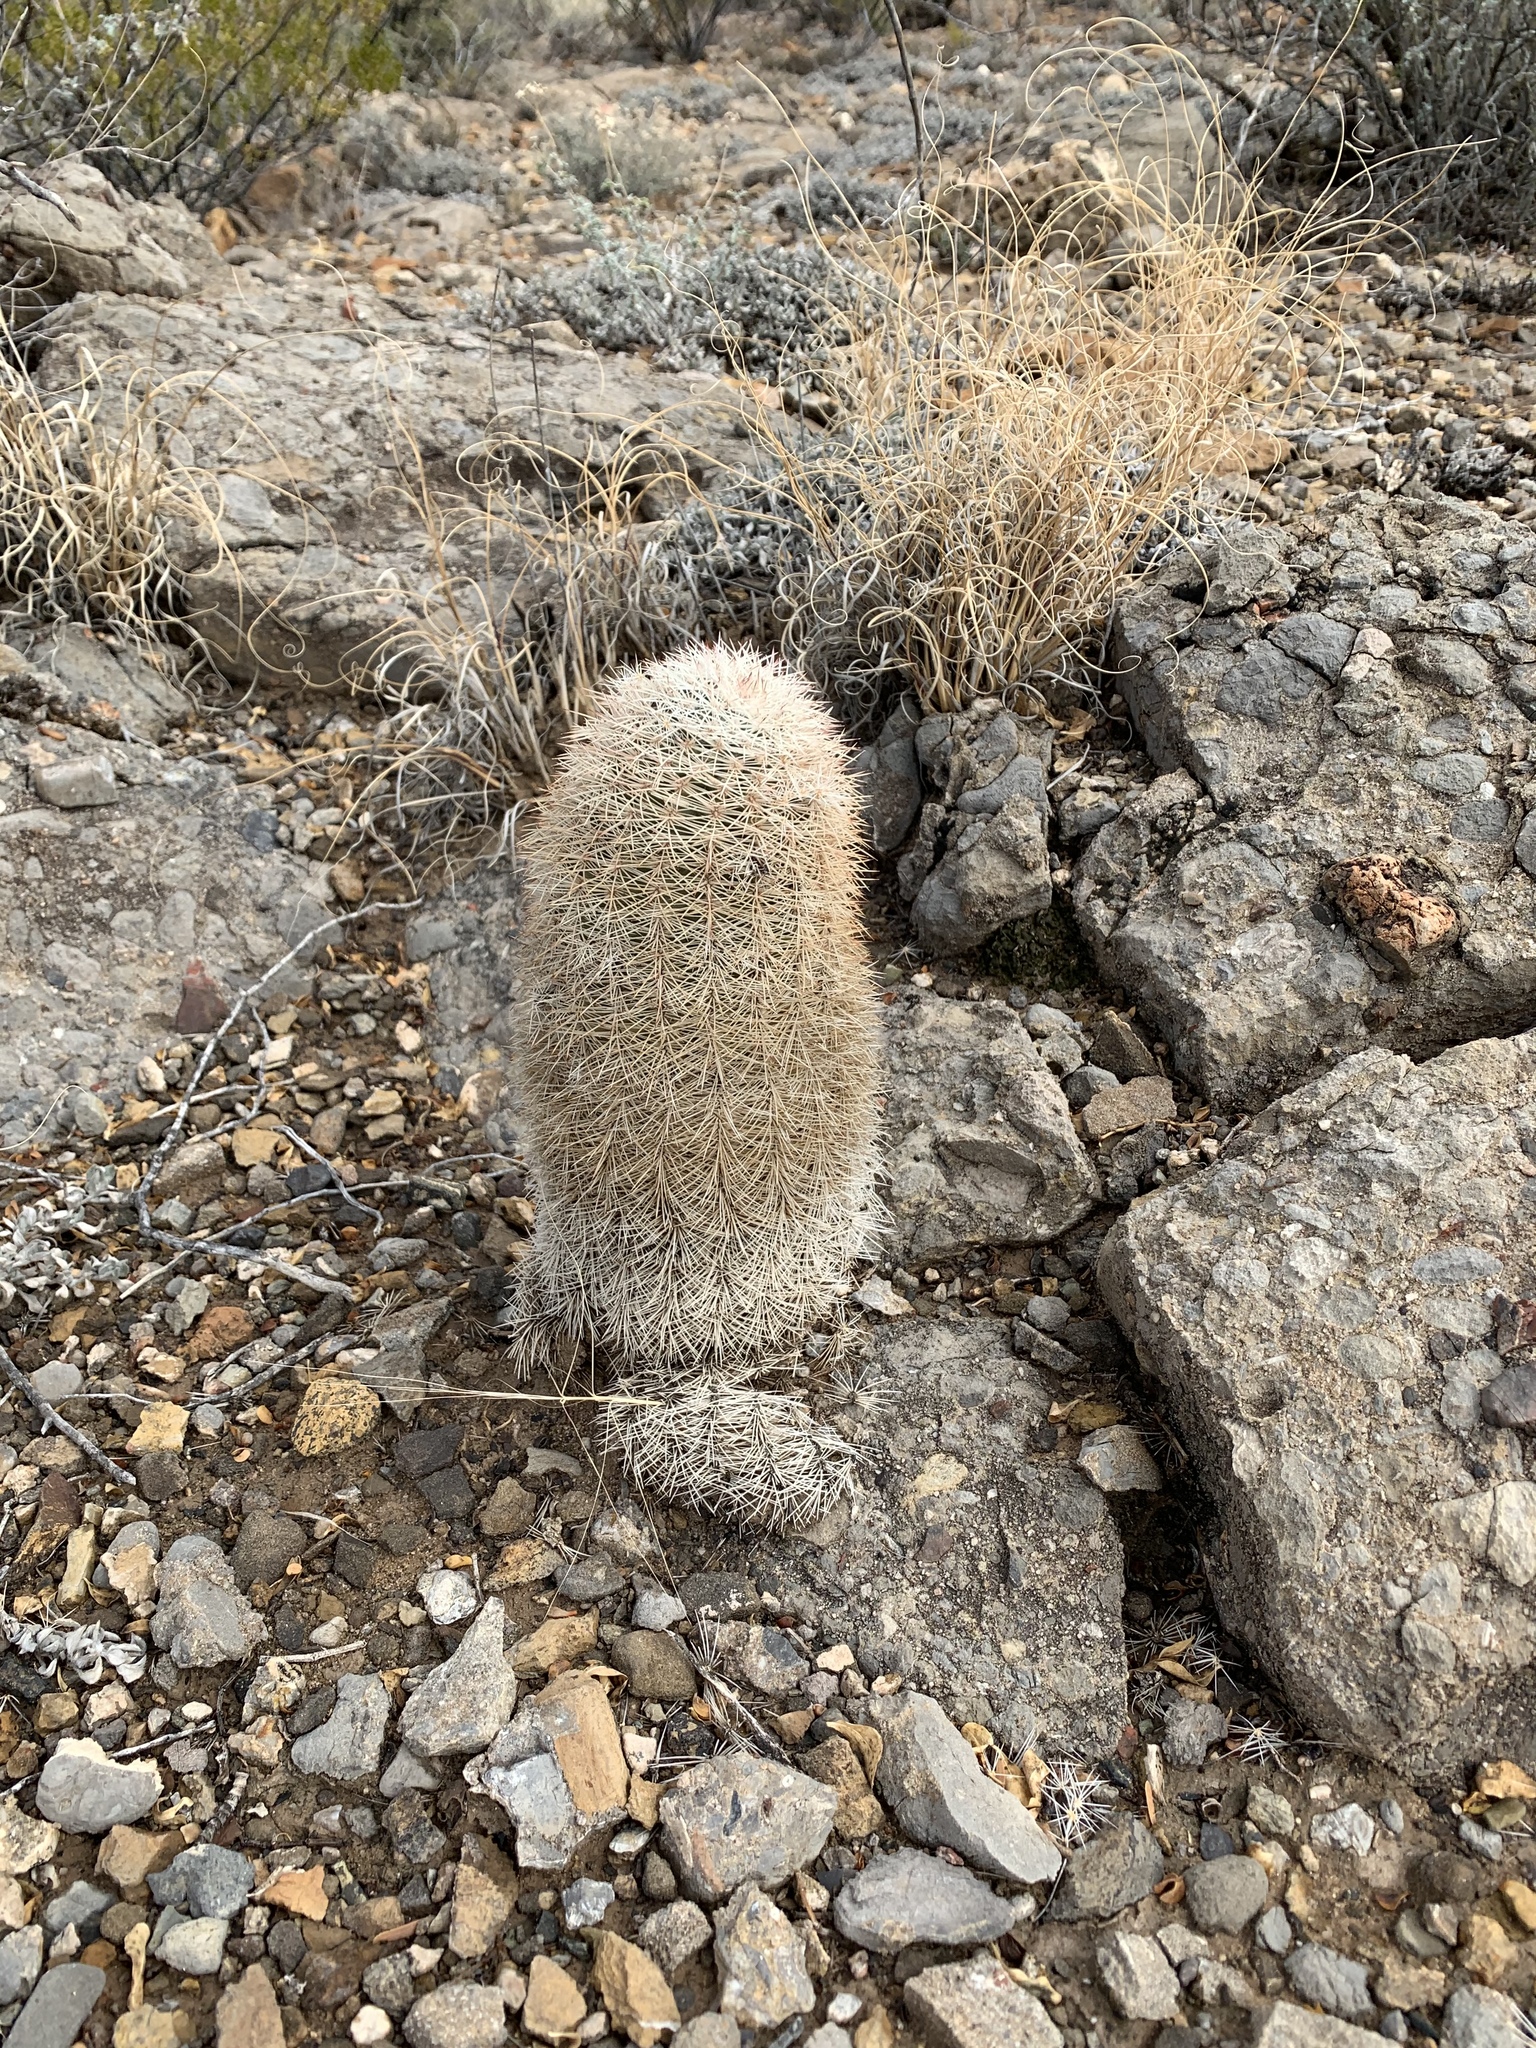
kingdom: Plantae
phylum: Tracheophyta
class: Magnoliopsida
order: Caryophyllales
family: Cactaceae
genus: Echinocereus
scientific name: Echinocereus dasyacanthus
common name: Spiny hedgehog cactus
